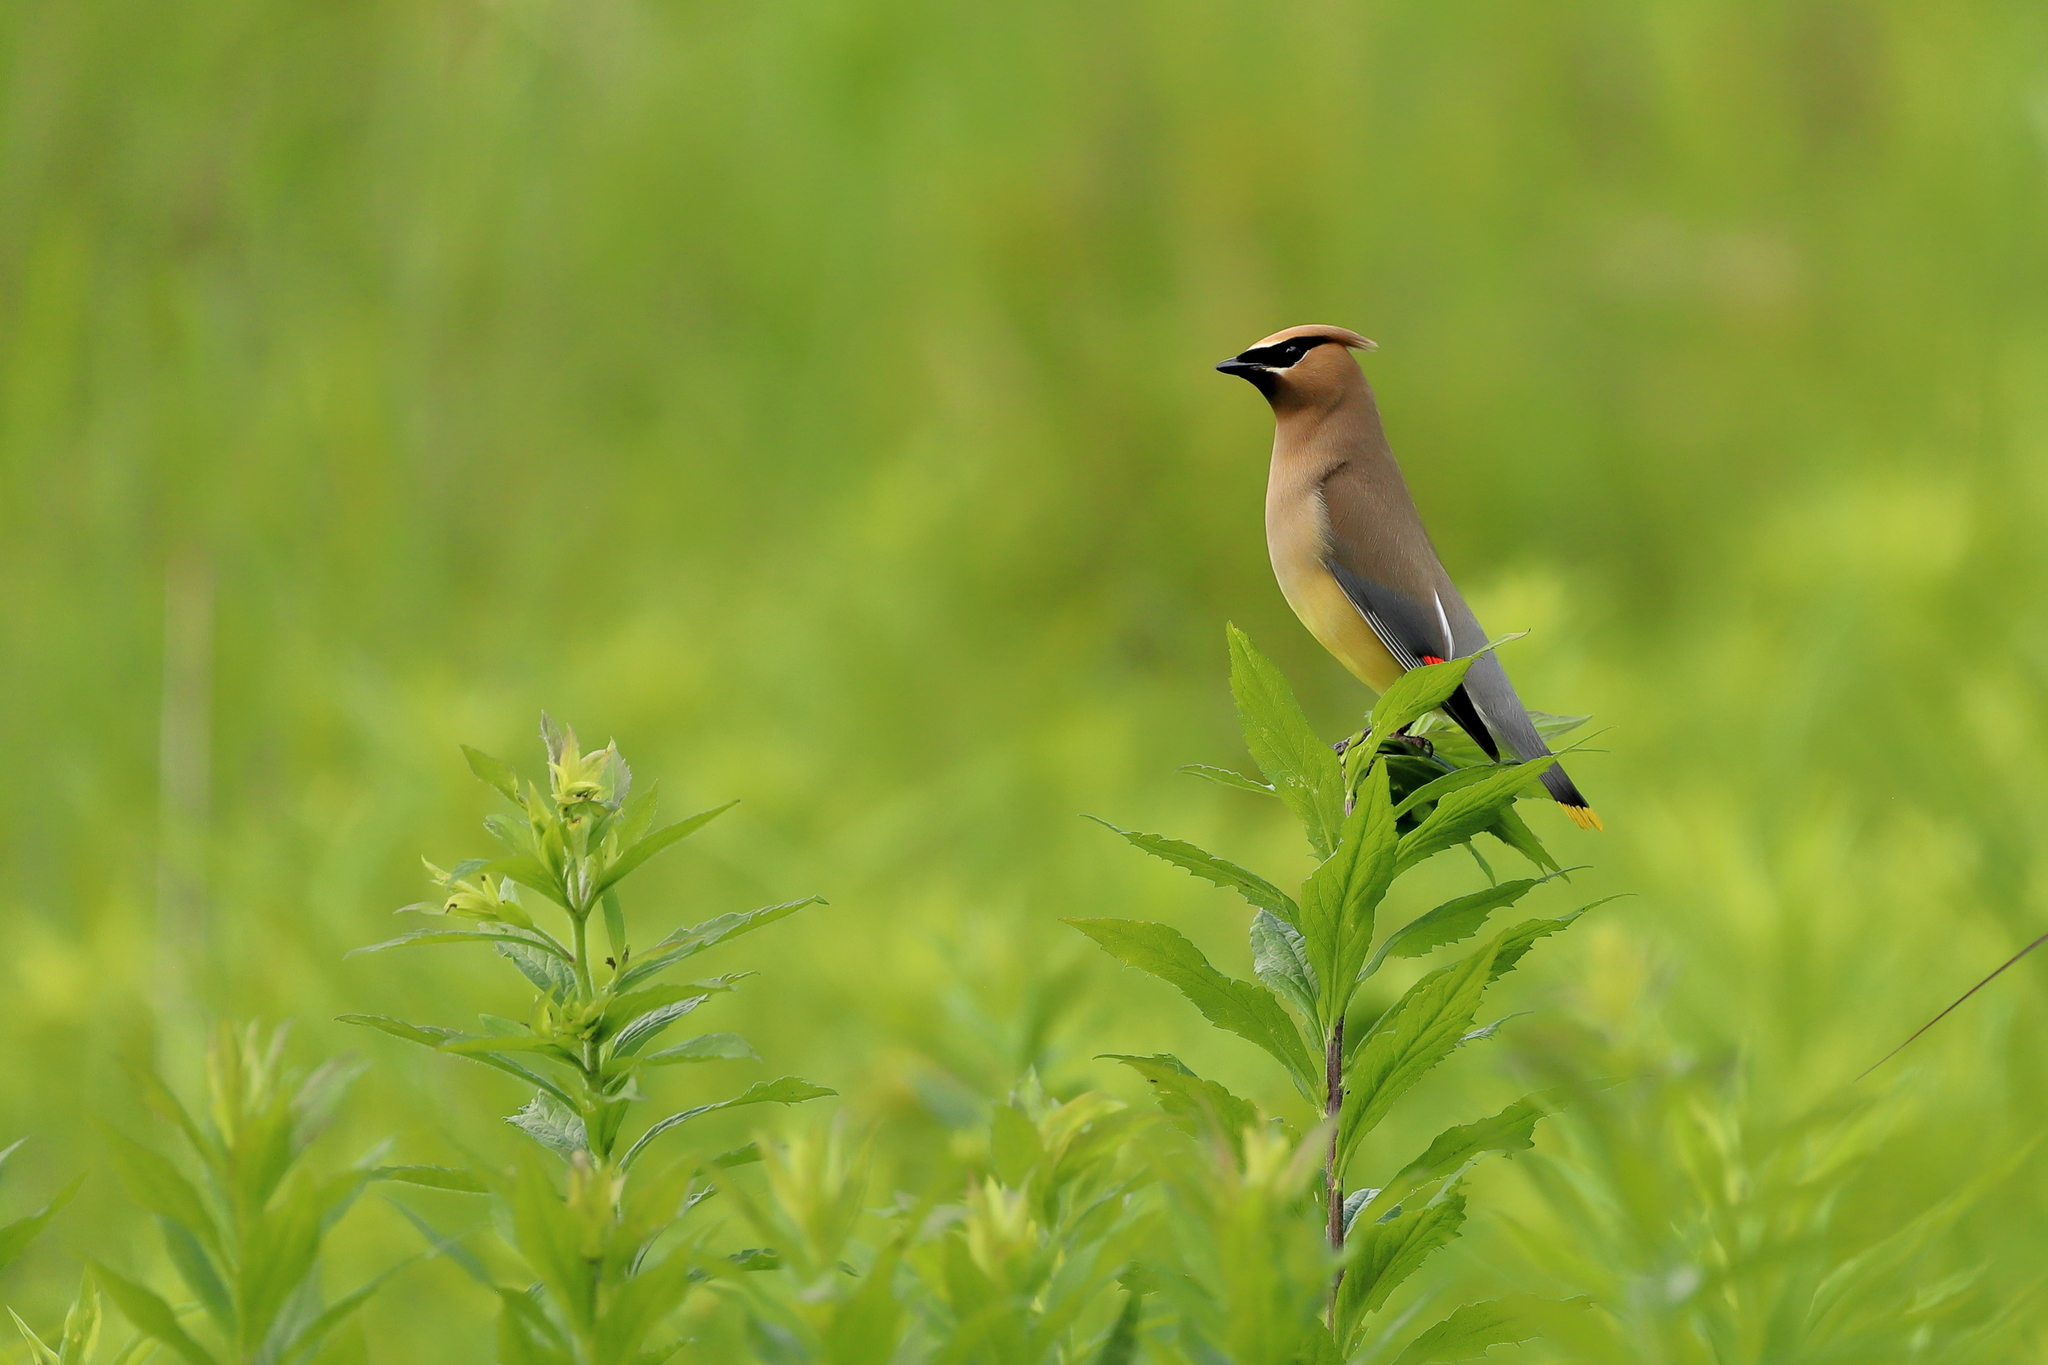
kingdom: Animalia
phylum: Chordata
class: Aves
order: Passeriformes
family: Bombycillidae
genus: Bombycilla
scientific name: Bombycilla cedrorum
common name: Cedar waxwing
